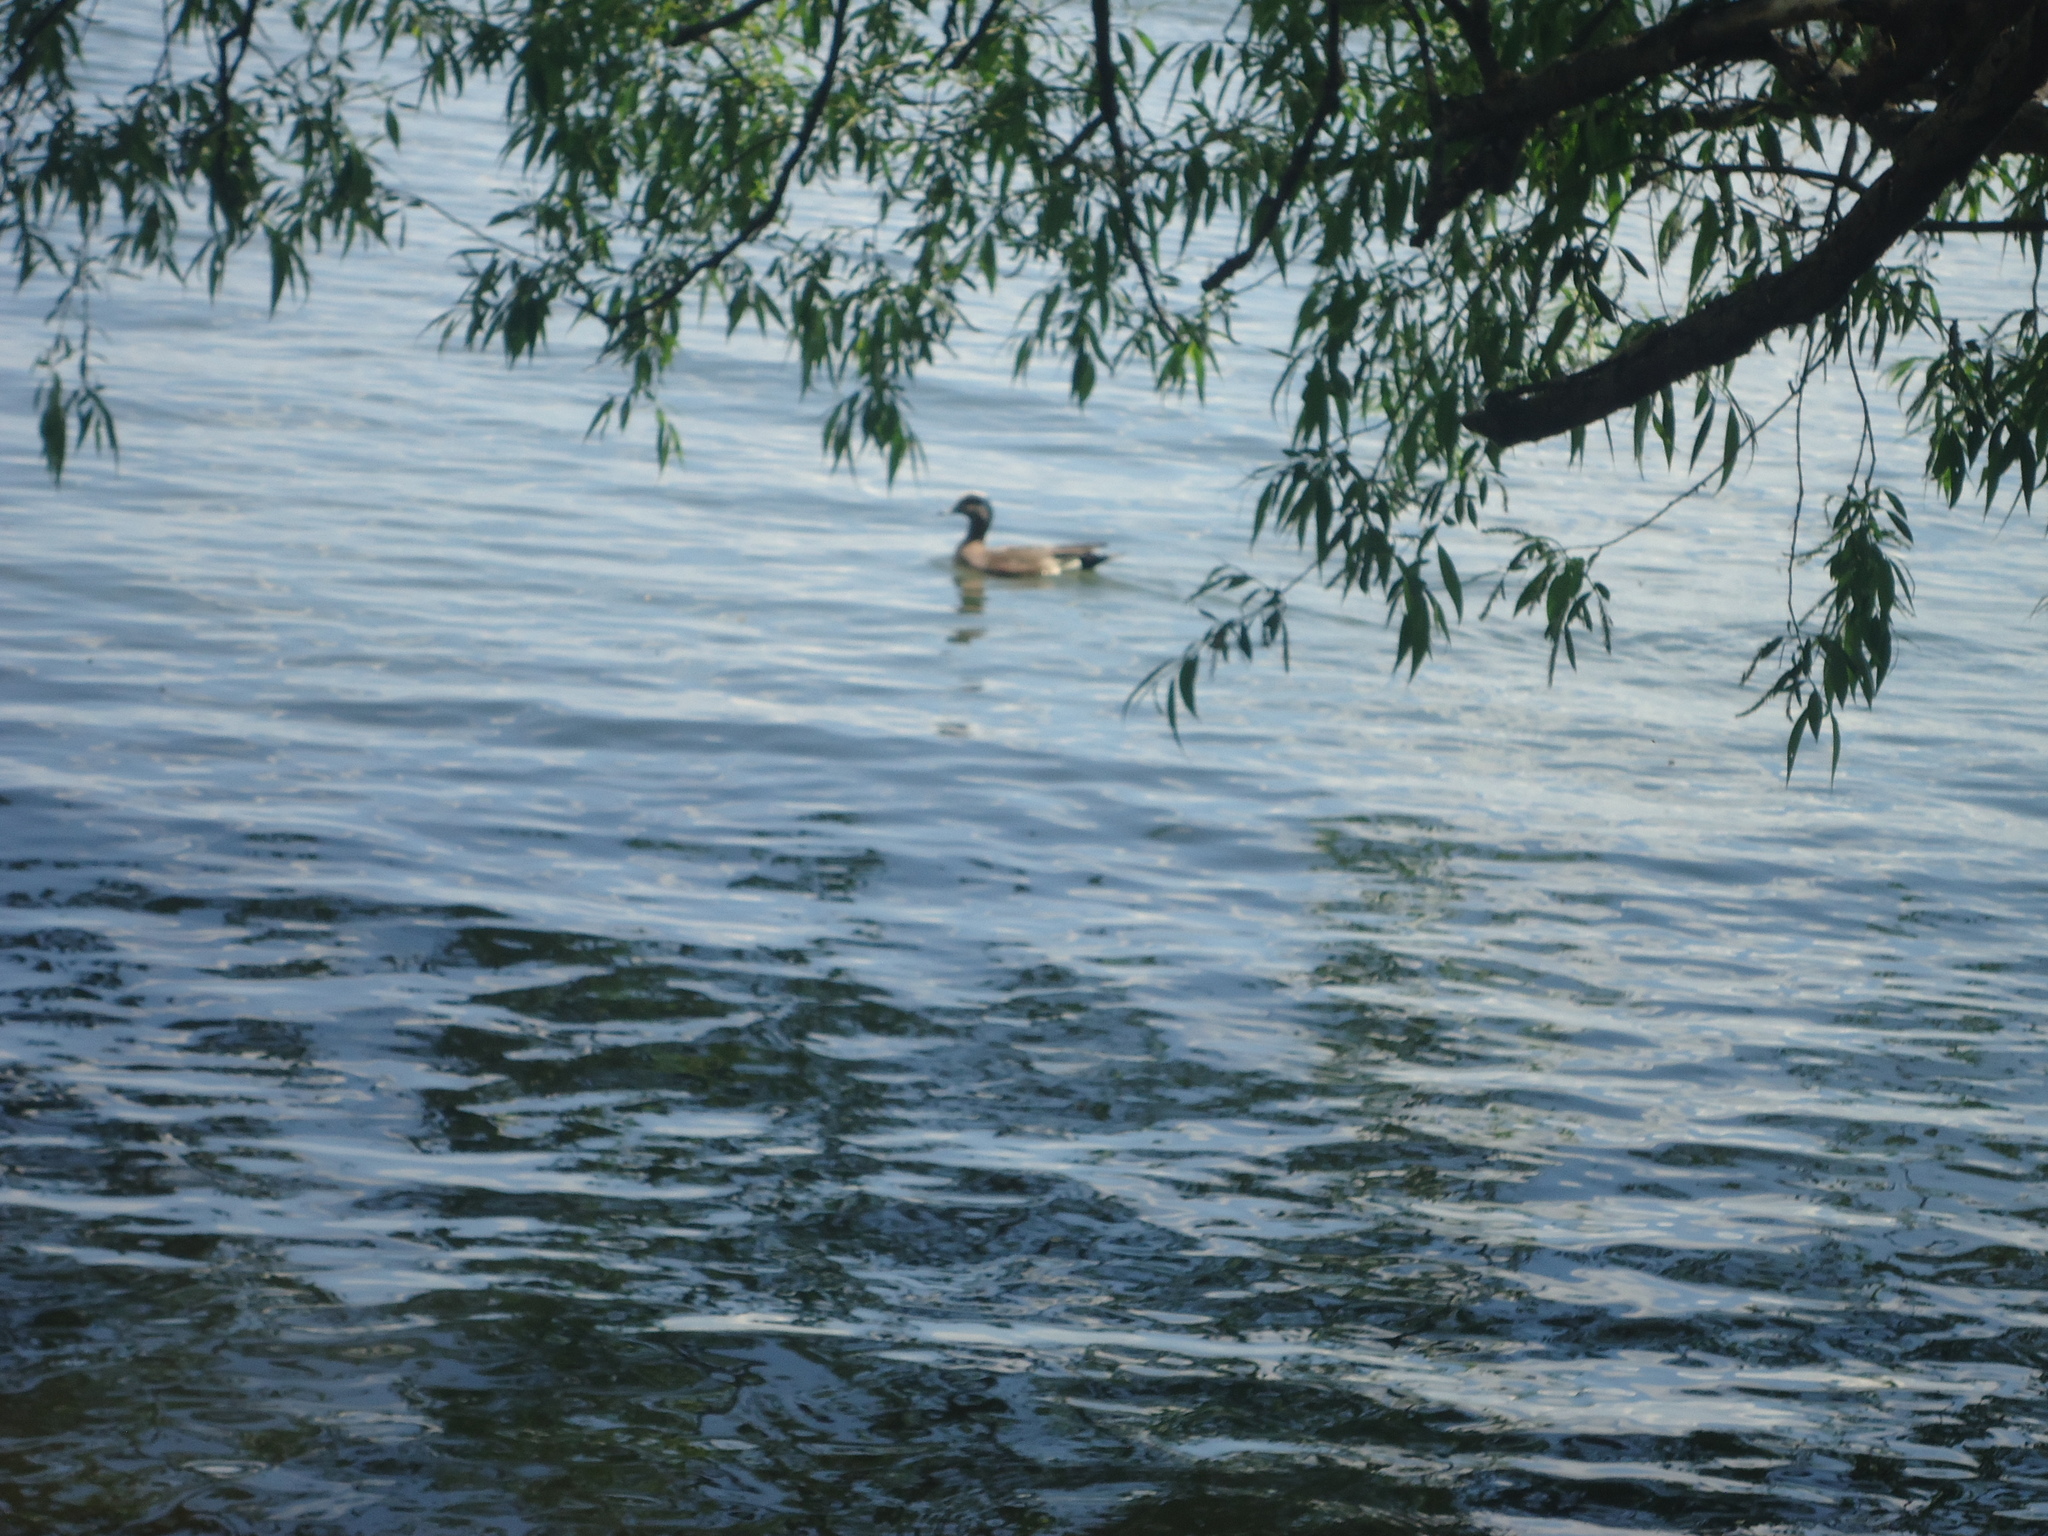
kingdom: Animalia
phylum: Chordata
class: Aves
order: Anseriformes
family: Anatidae
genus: Mareca
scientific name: Mareca americana
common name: American wigeon
